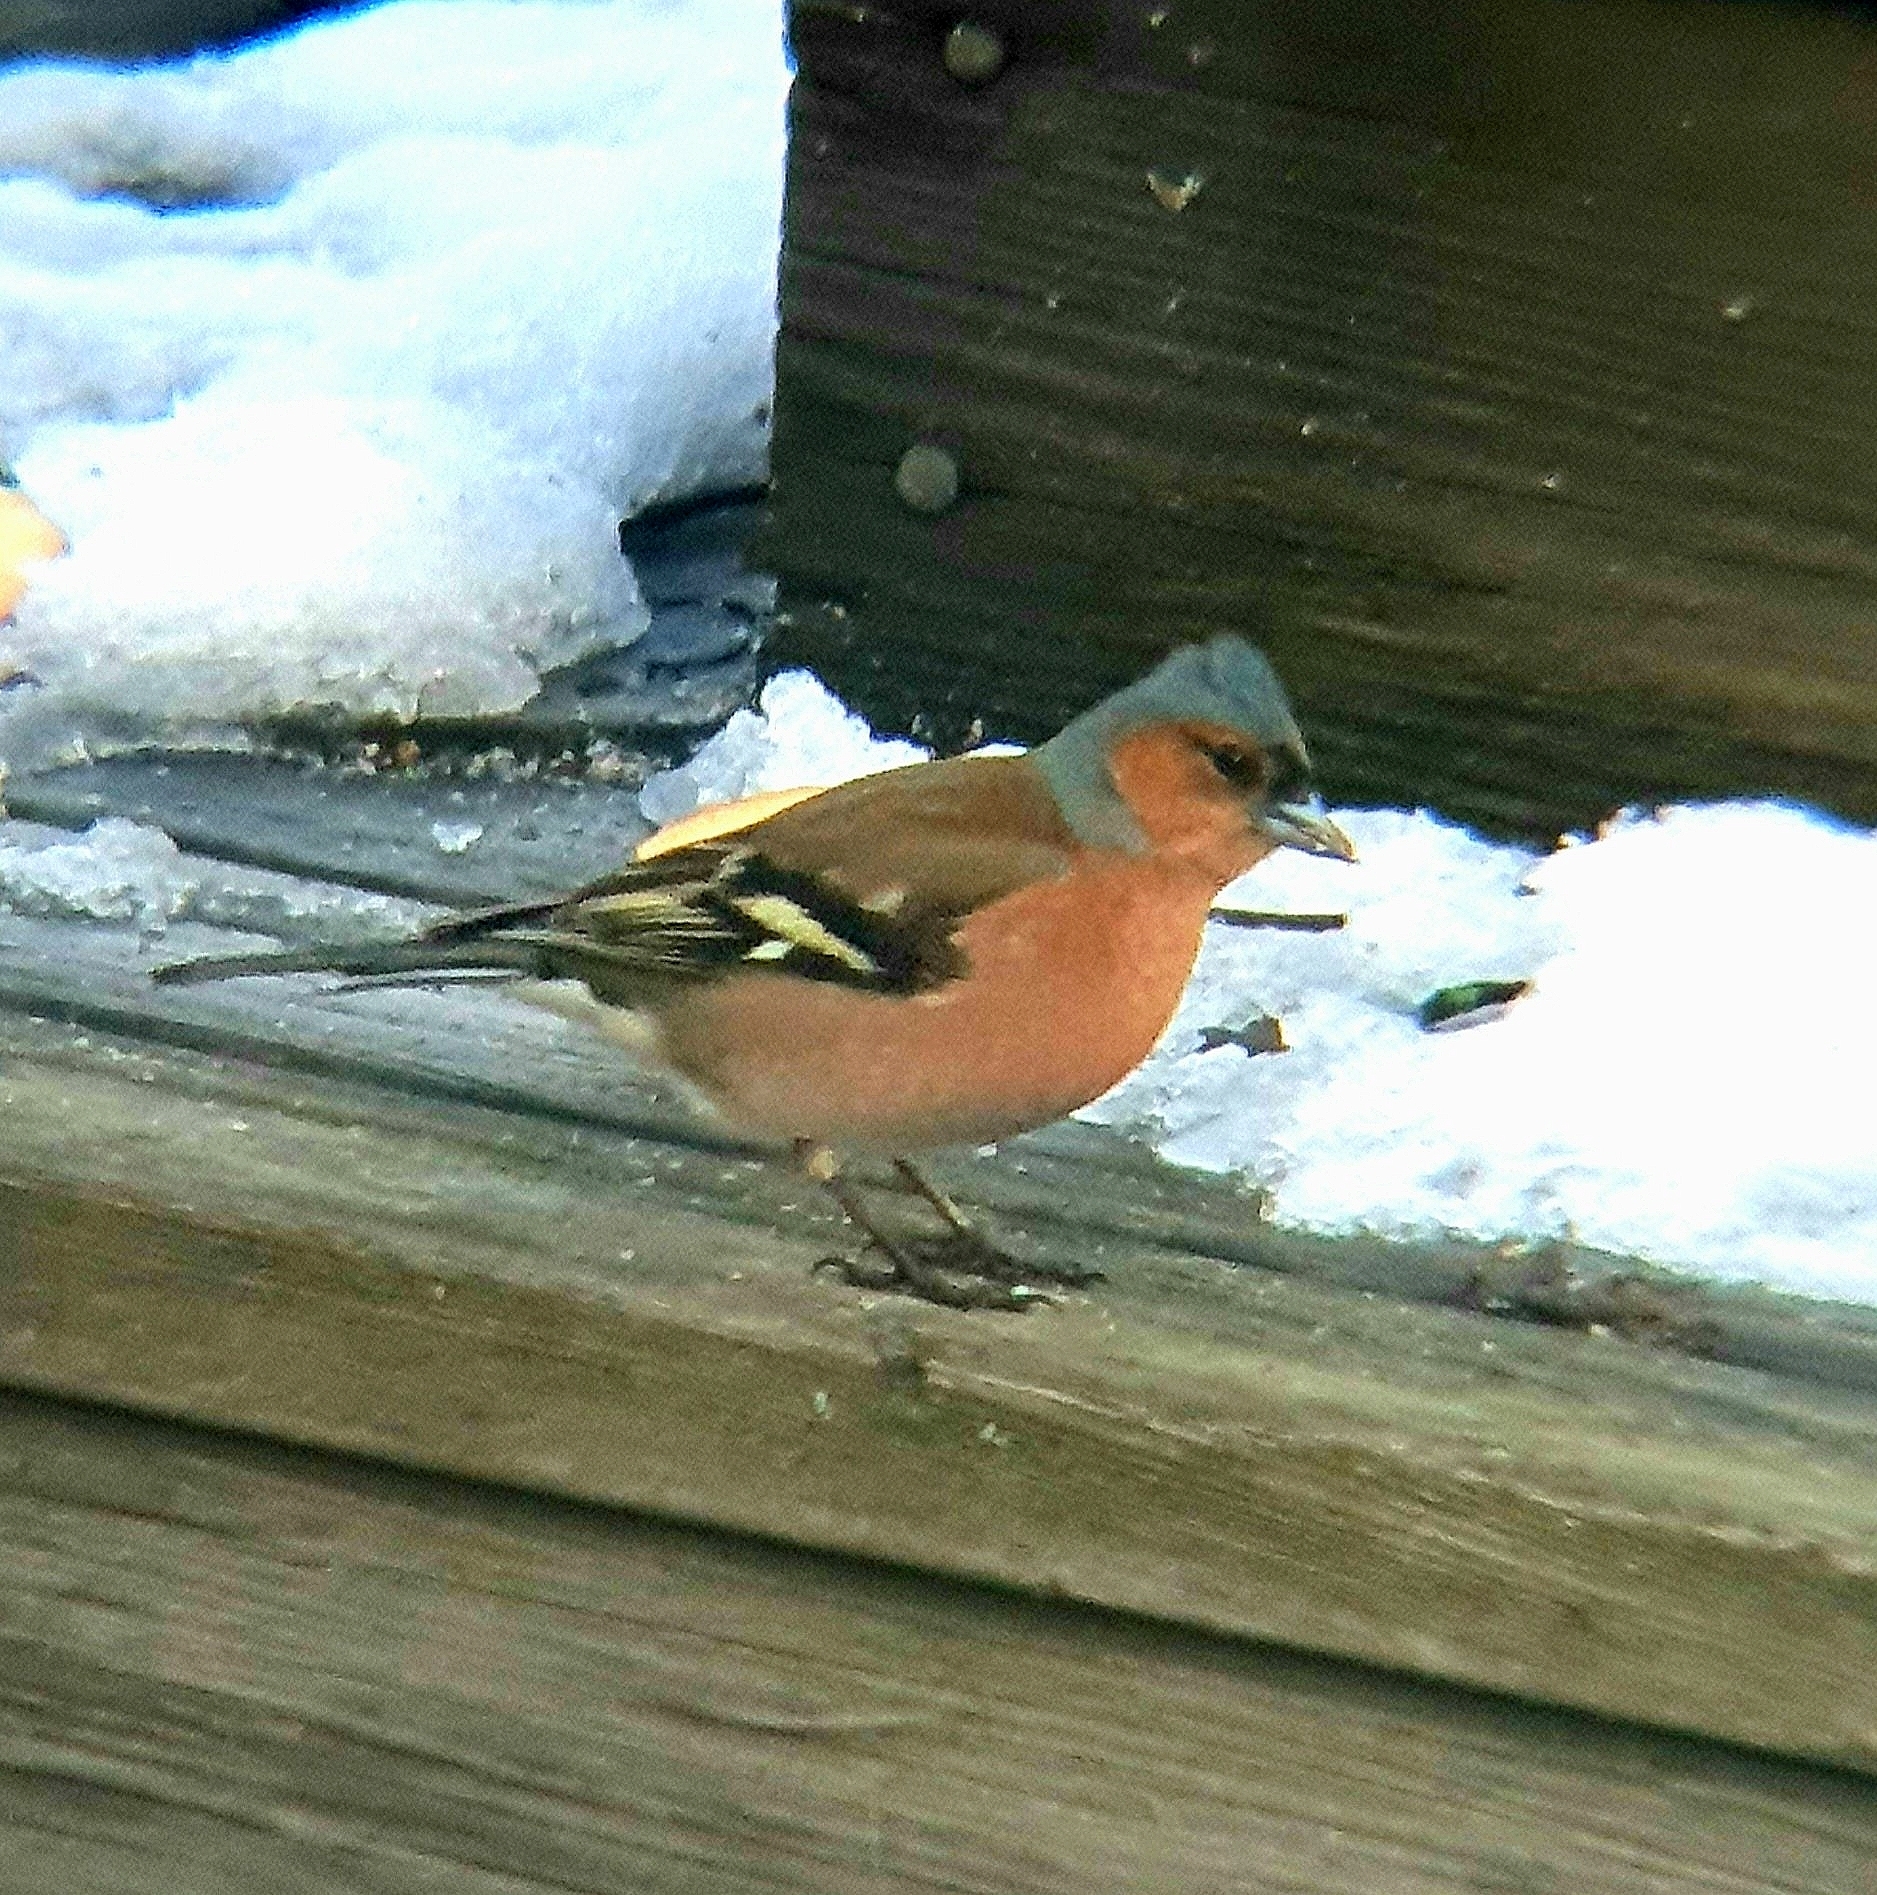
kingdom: Animalia
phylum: Chordata
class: Aves
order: Passeriformes
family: Fringillidae
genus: Fringilla
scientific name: Fringilla coelebs
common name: Common chaffinch
